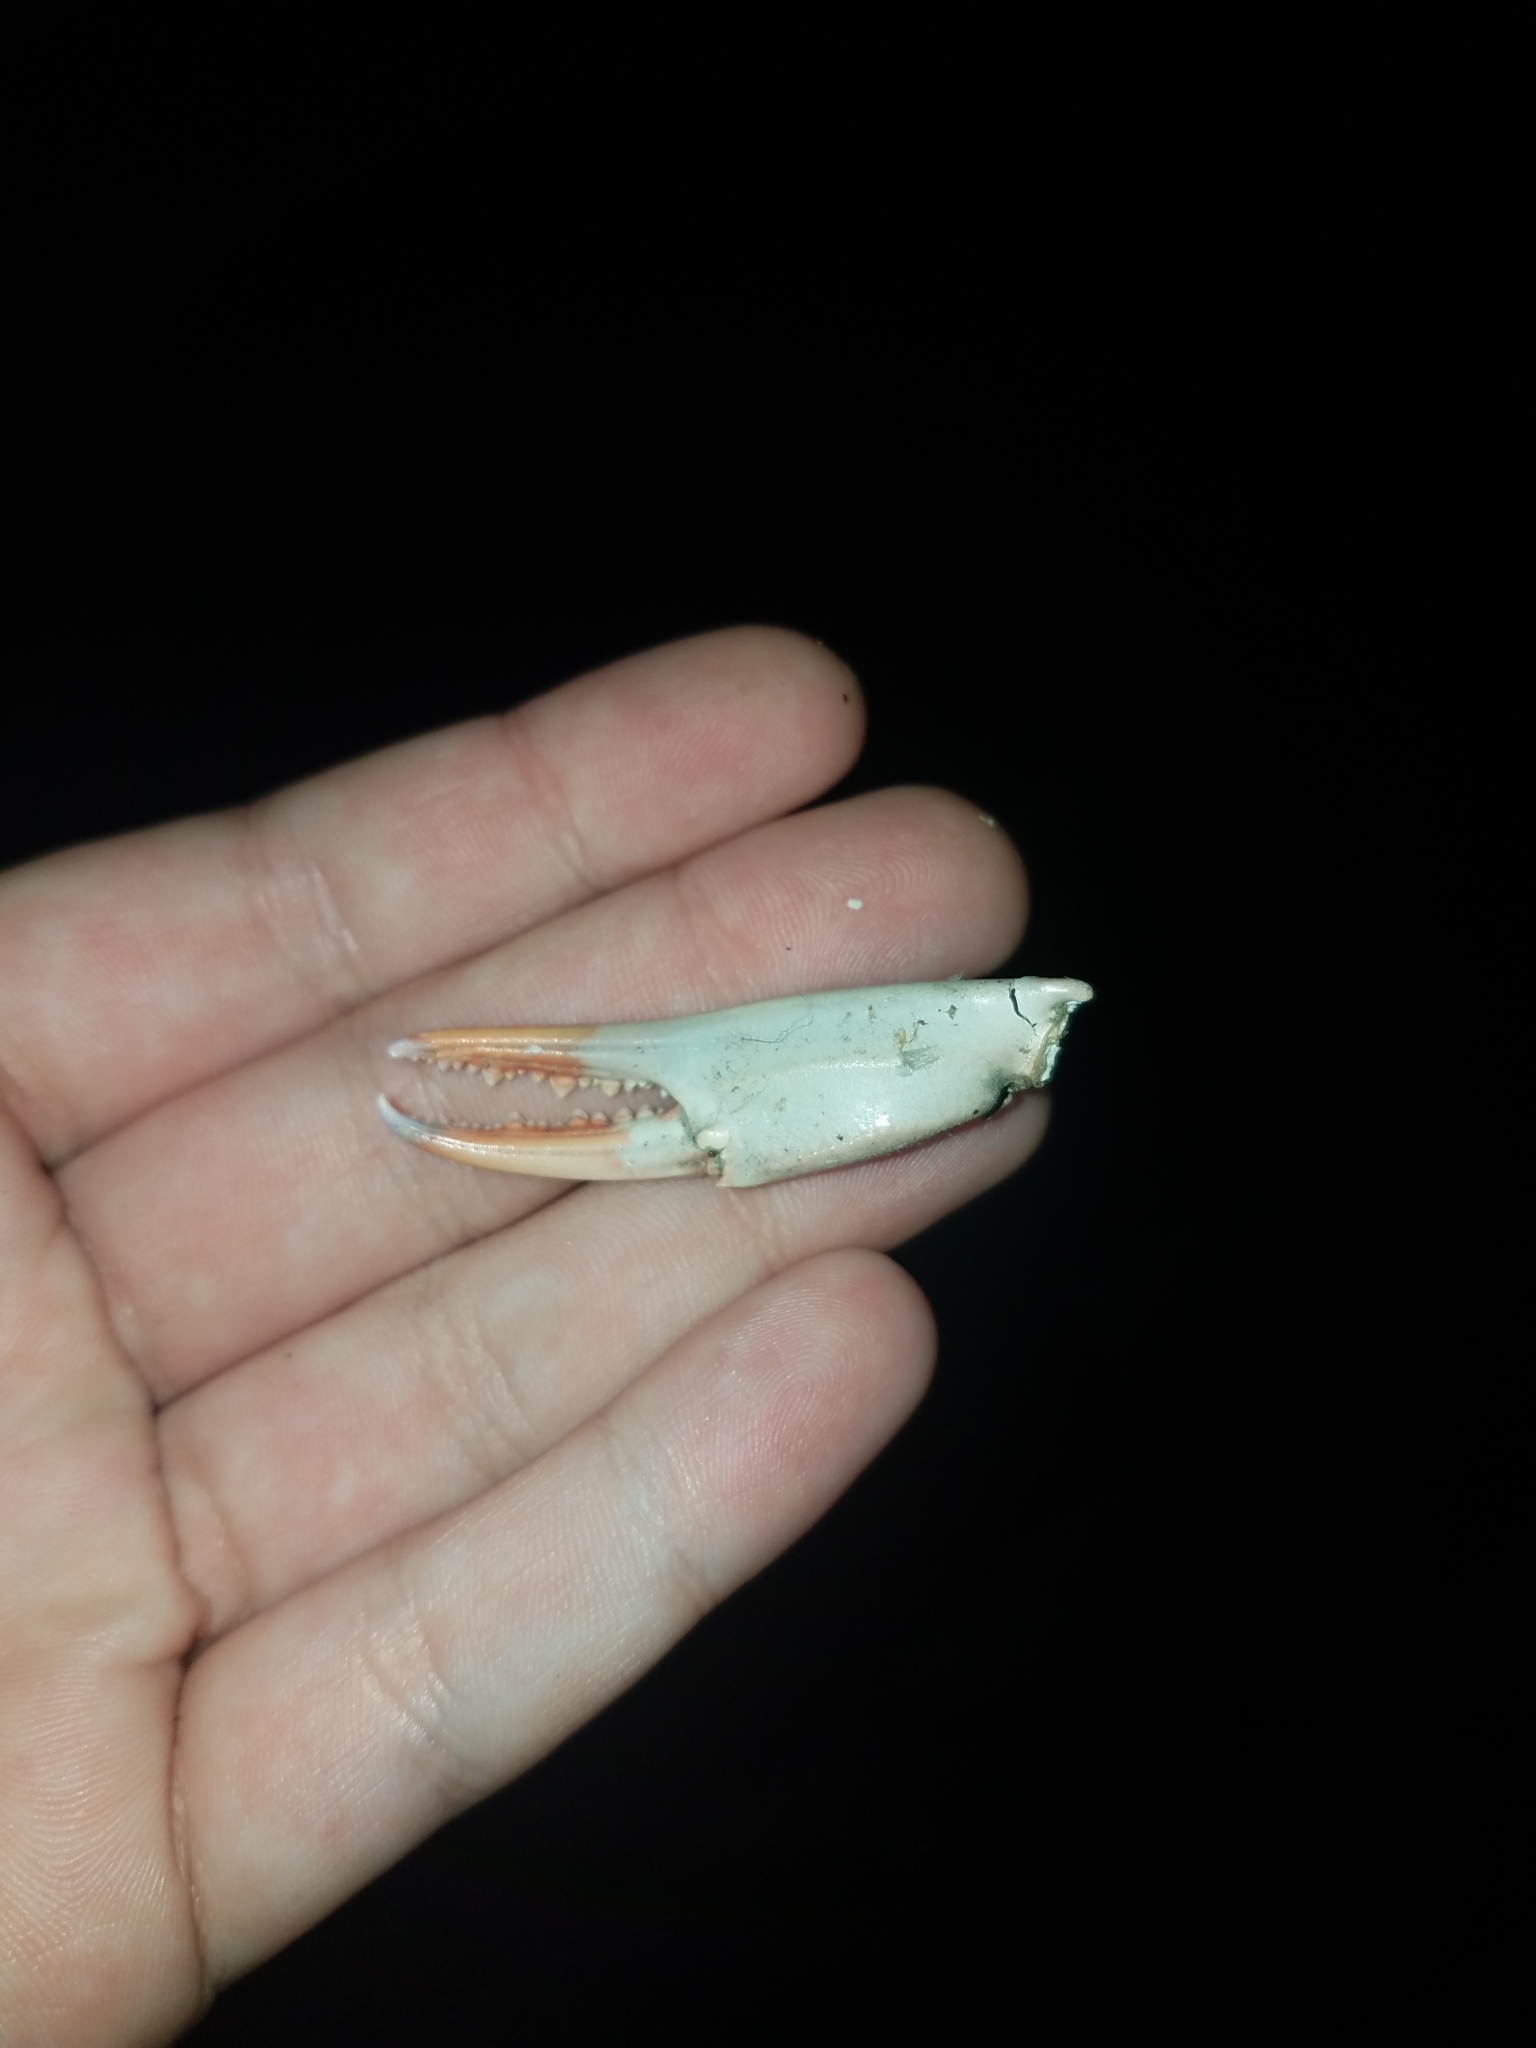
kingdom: Animalia
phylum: Arthropoda
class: Malacostraca
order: Decapoda
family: Portunidae
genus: Callinectes
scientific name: Callinectes sapidus
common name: Blue crab
